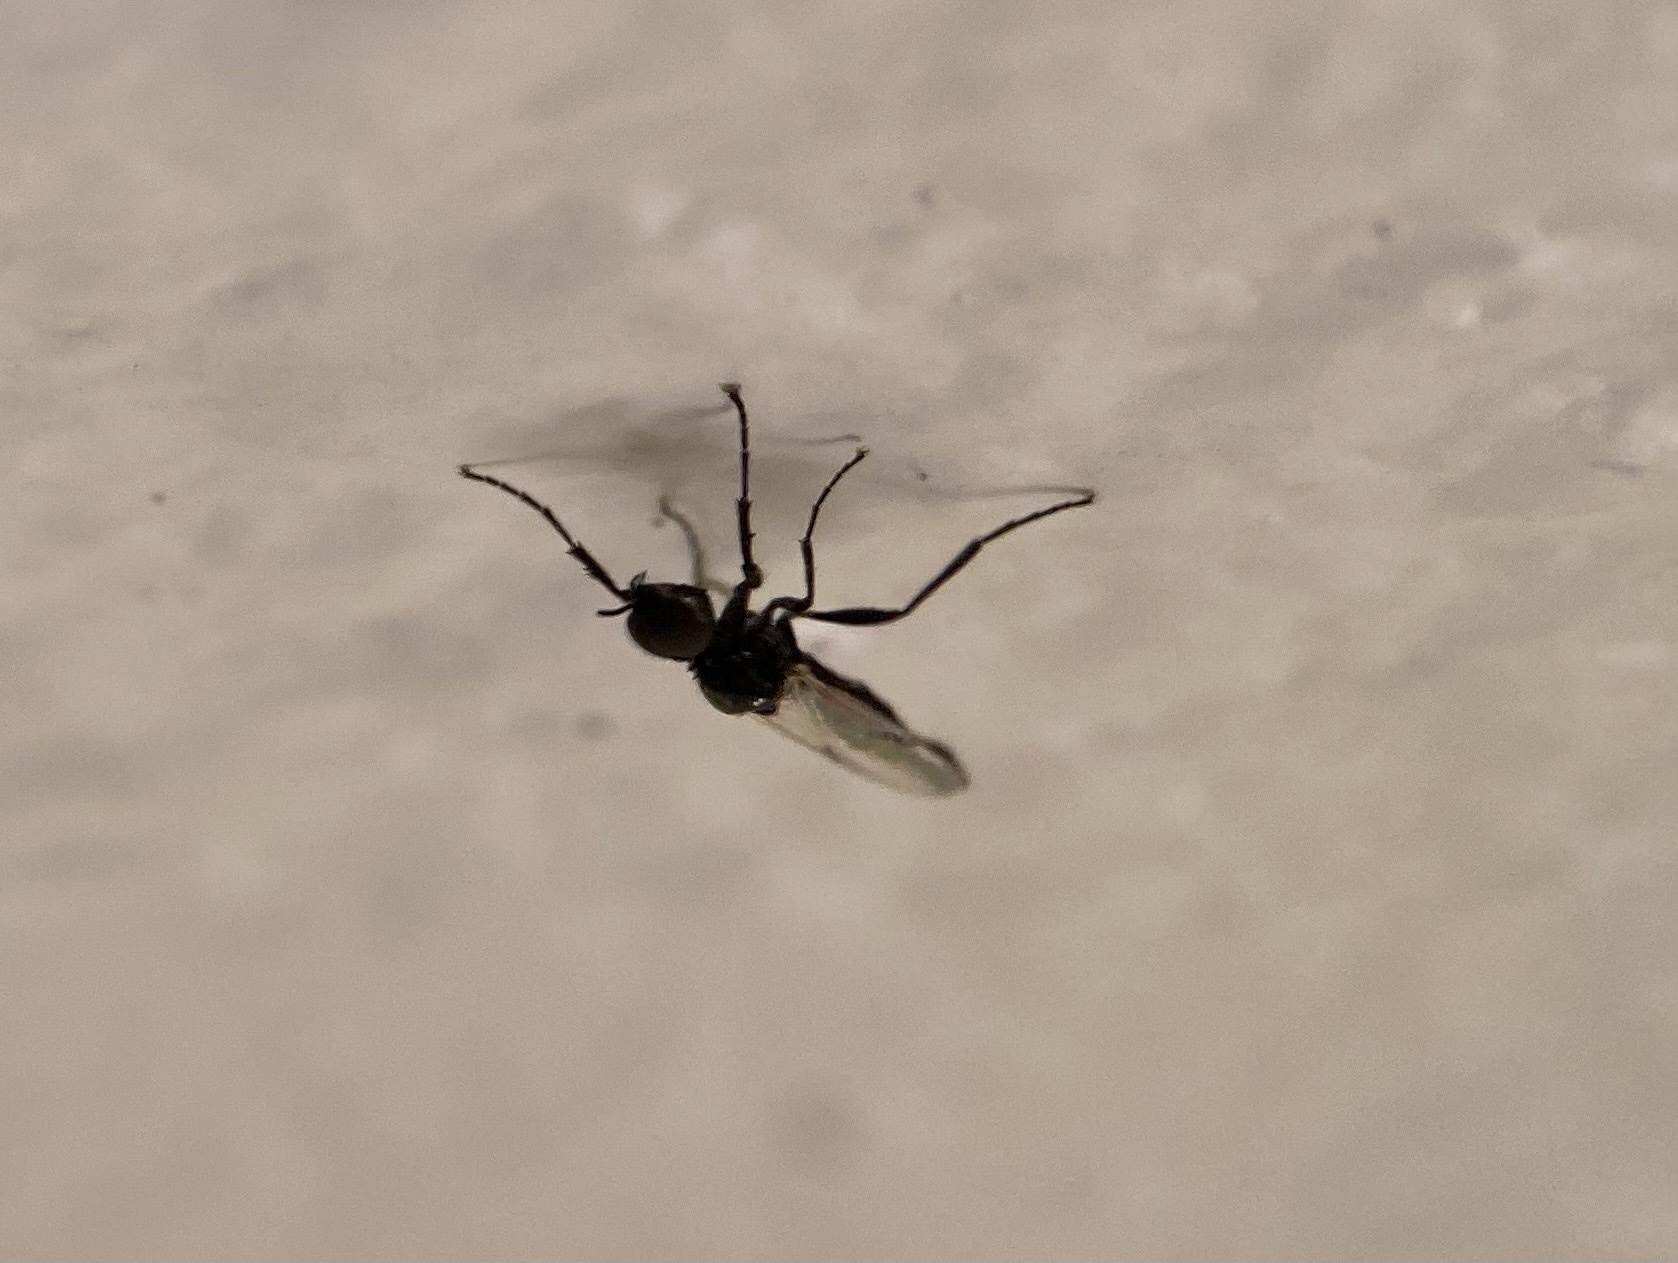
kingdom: Animalia
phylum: Arthropoda
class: Insecta
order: Diptera
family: Bibionidae
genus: Dilophus
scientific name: Dilophus
